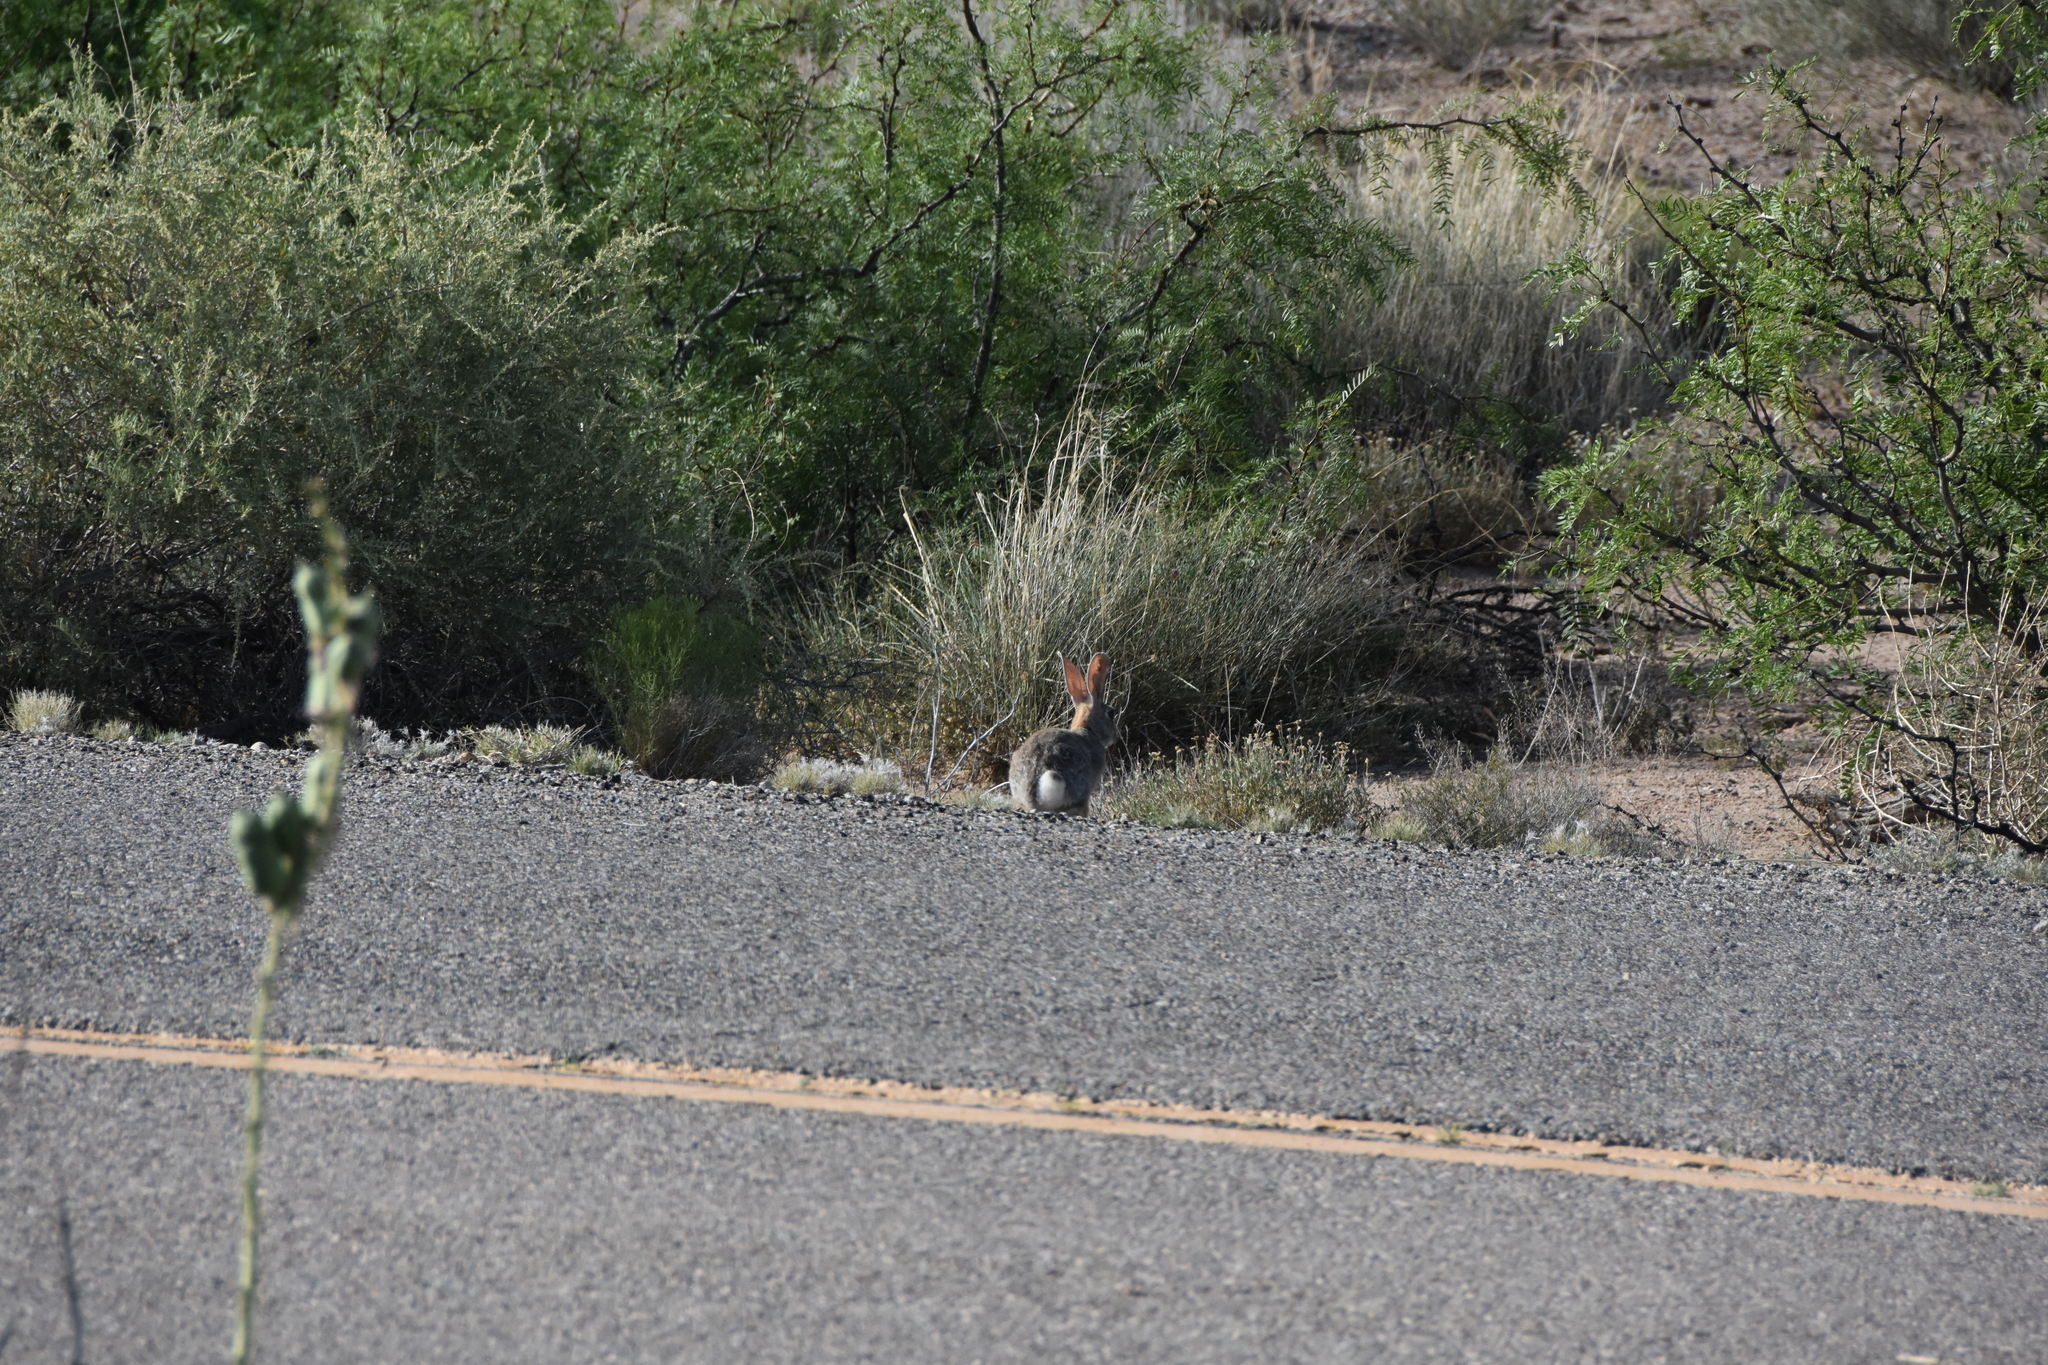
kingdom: Animalia
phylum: Chordata
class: Mammalia
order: Lagomorpha
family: Leporidae
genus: Sylvilagus
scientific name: Sylvilagus audubonii
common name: Desert cottontail
